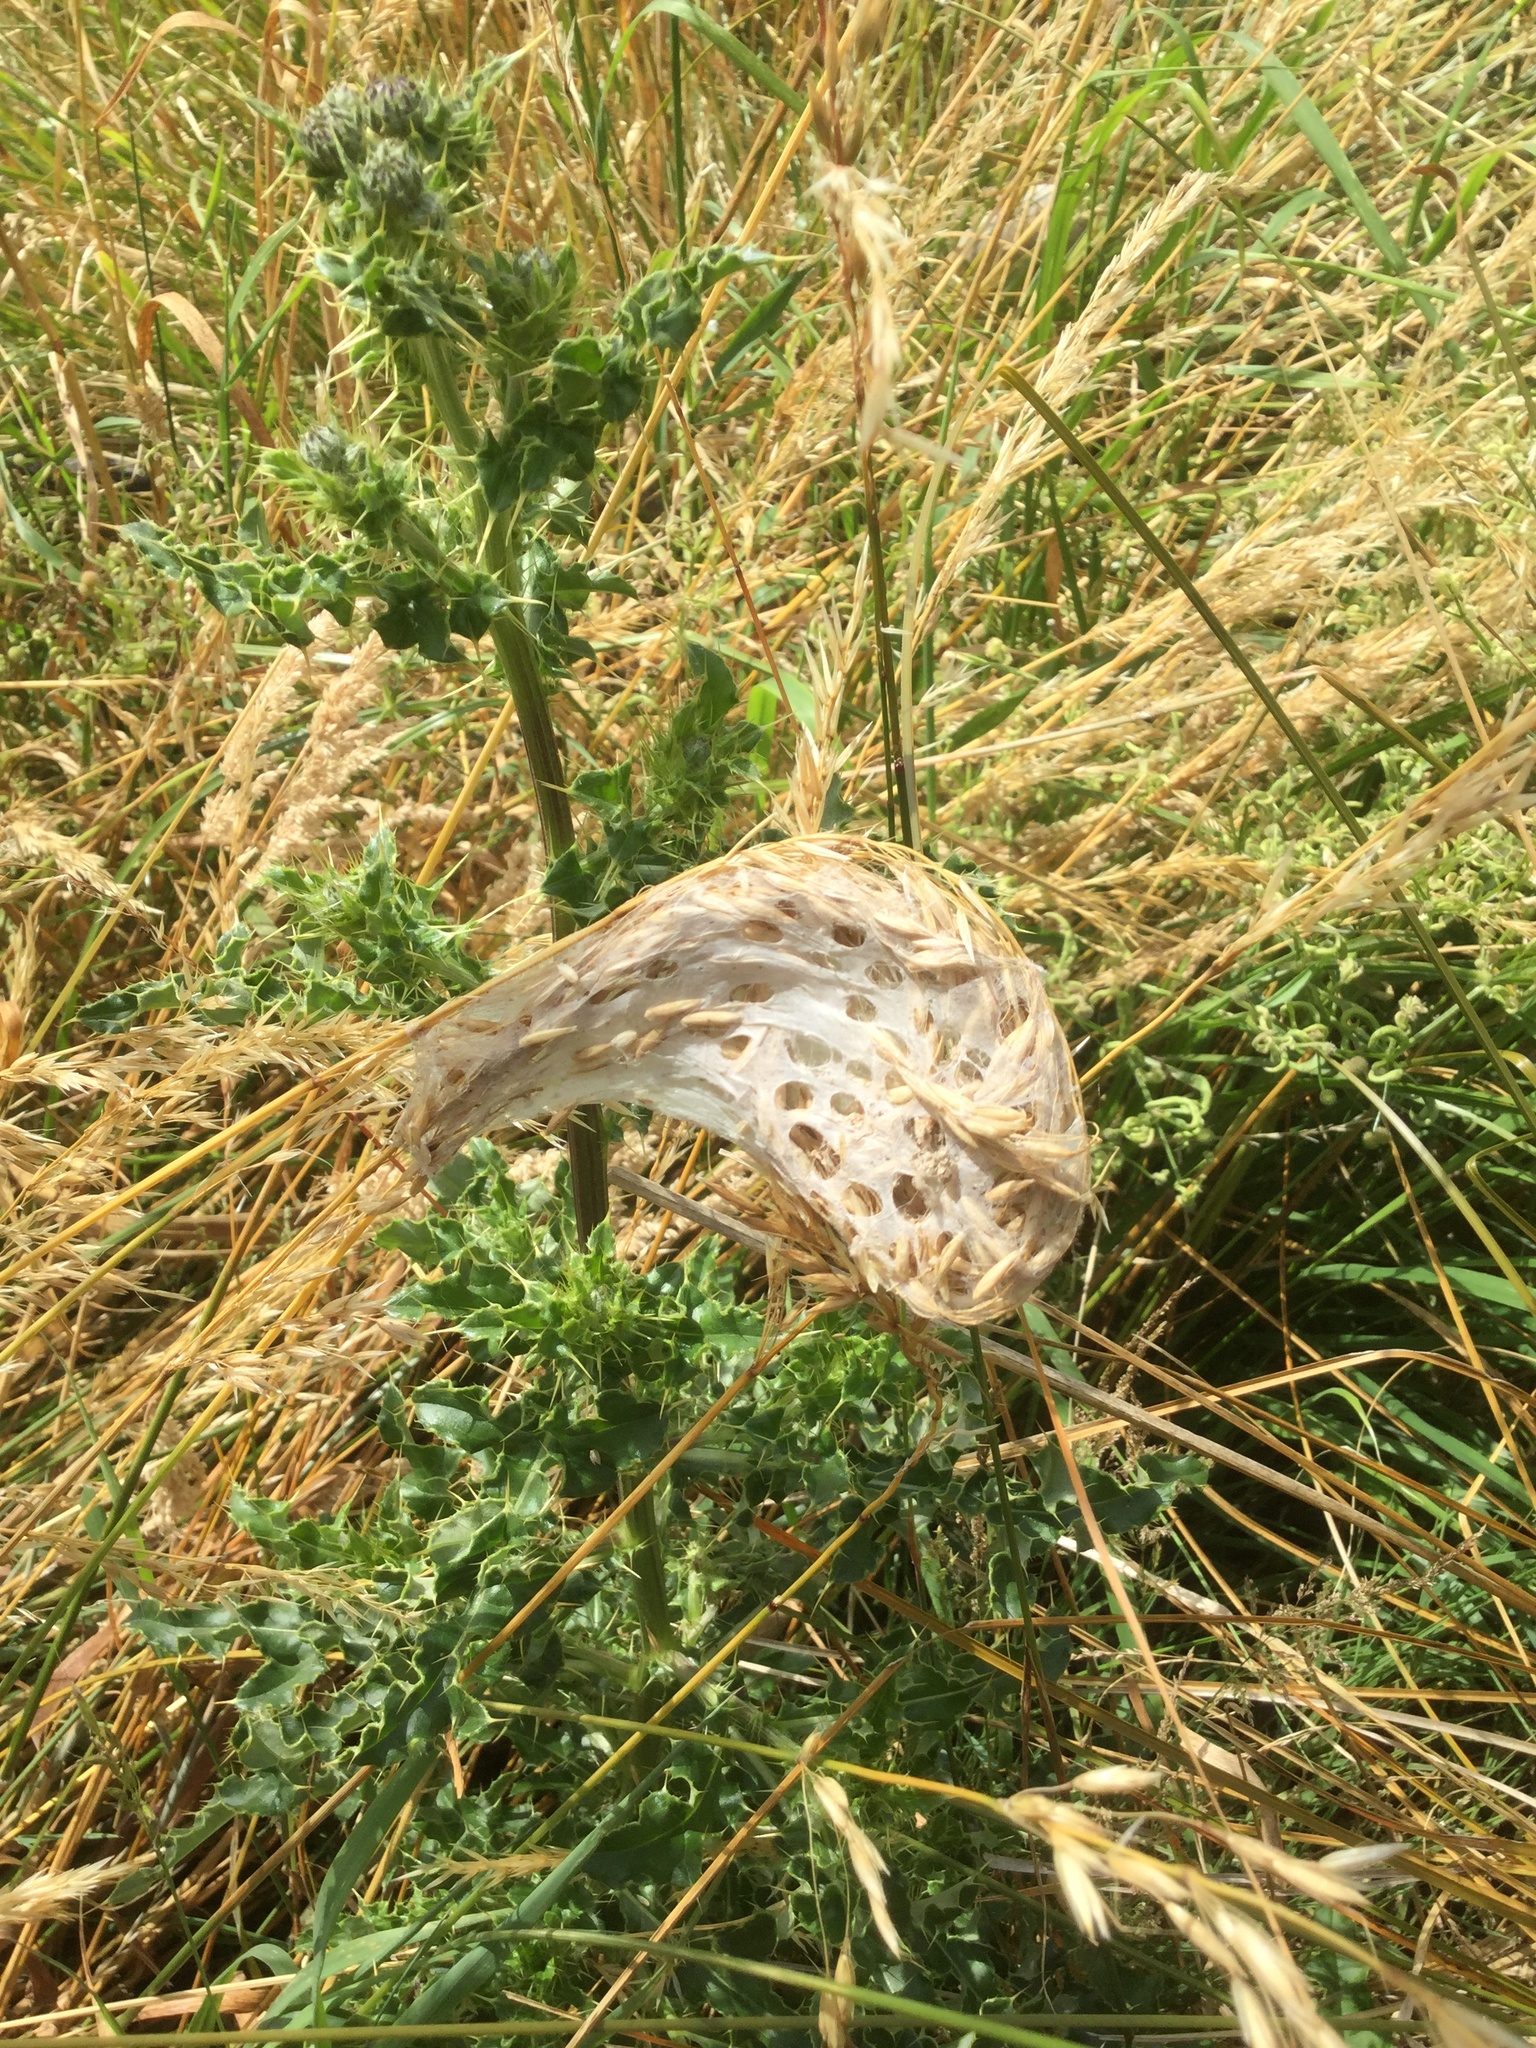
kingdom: Animalia
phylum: Arthropoda
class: Arachnida
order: Araneae
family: Pisauridae
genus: Dolomedes
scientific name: Dolomedes minor
